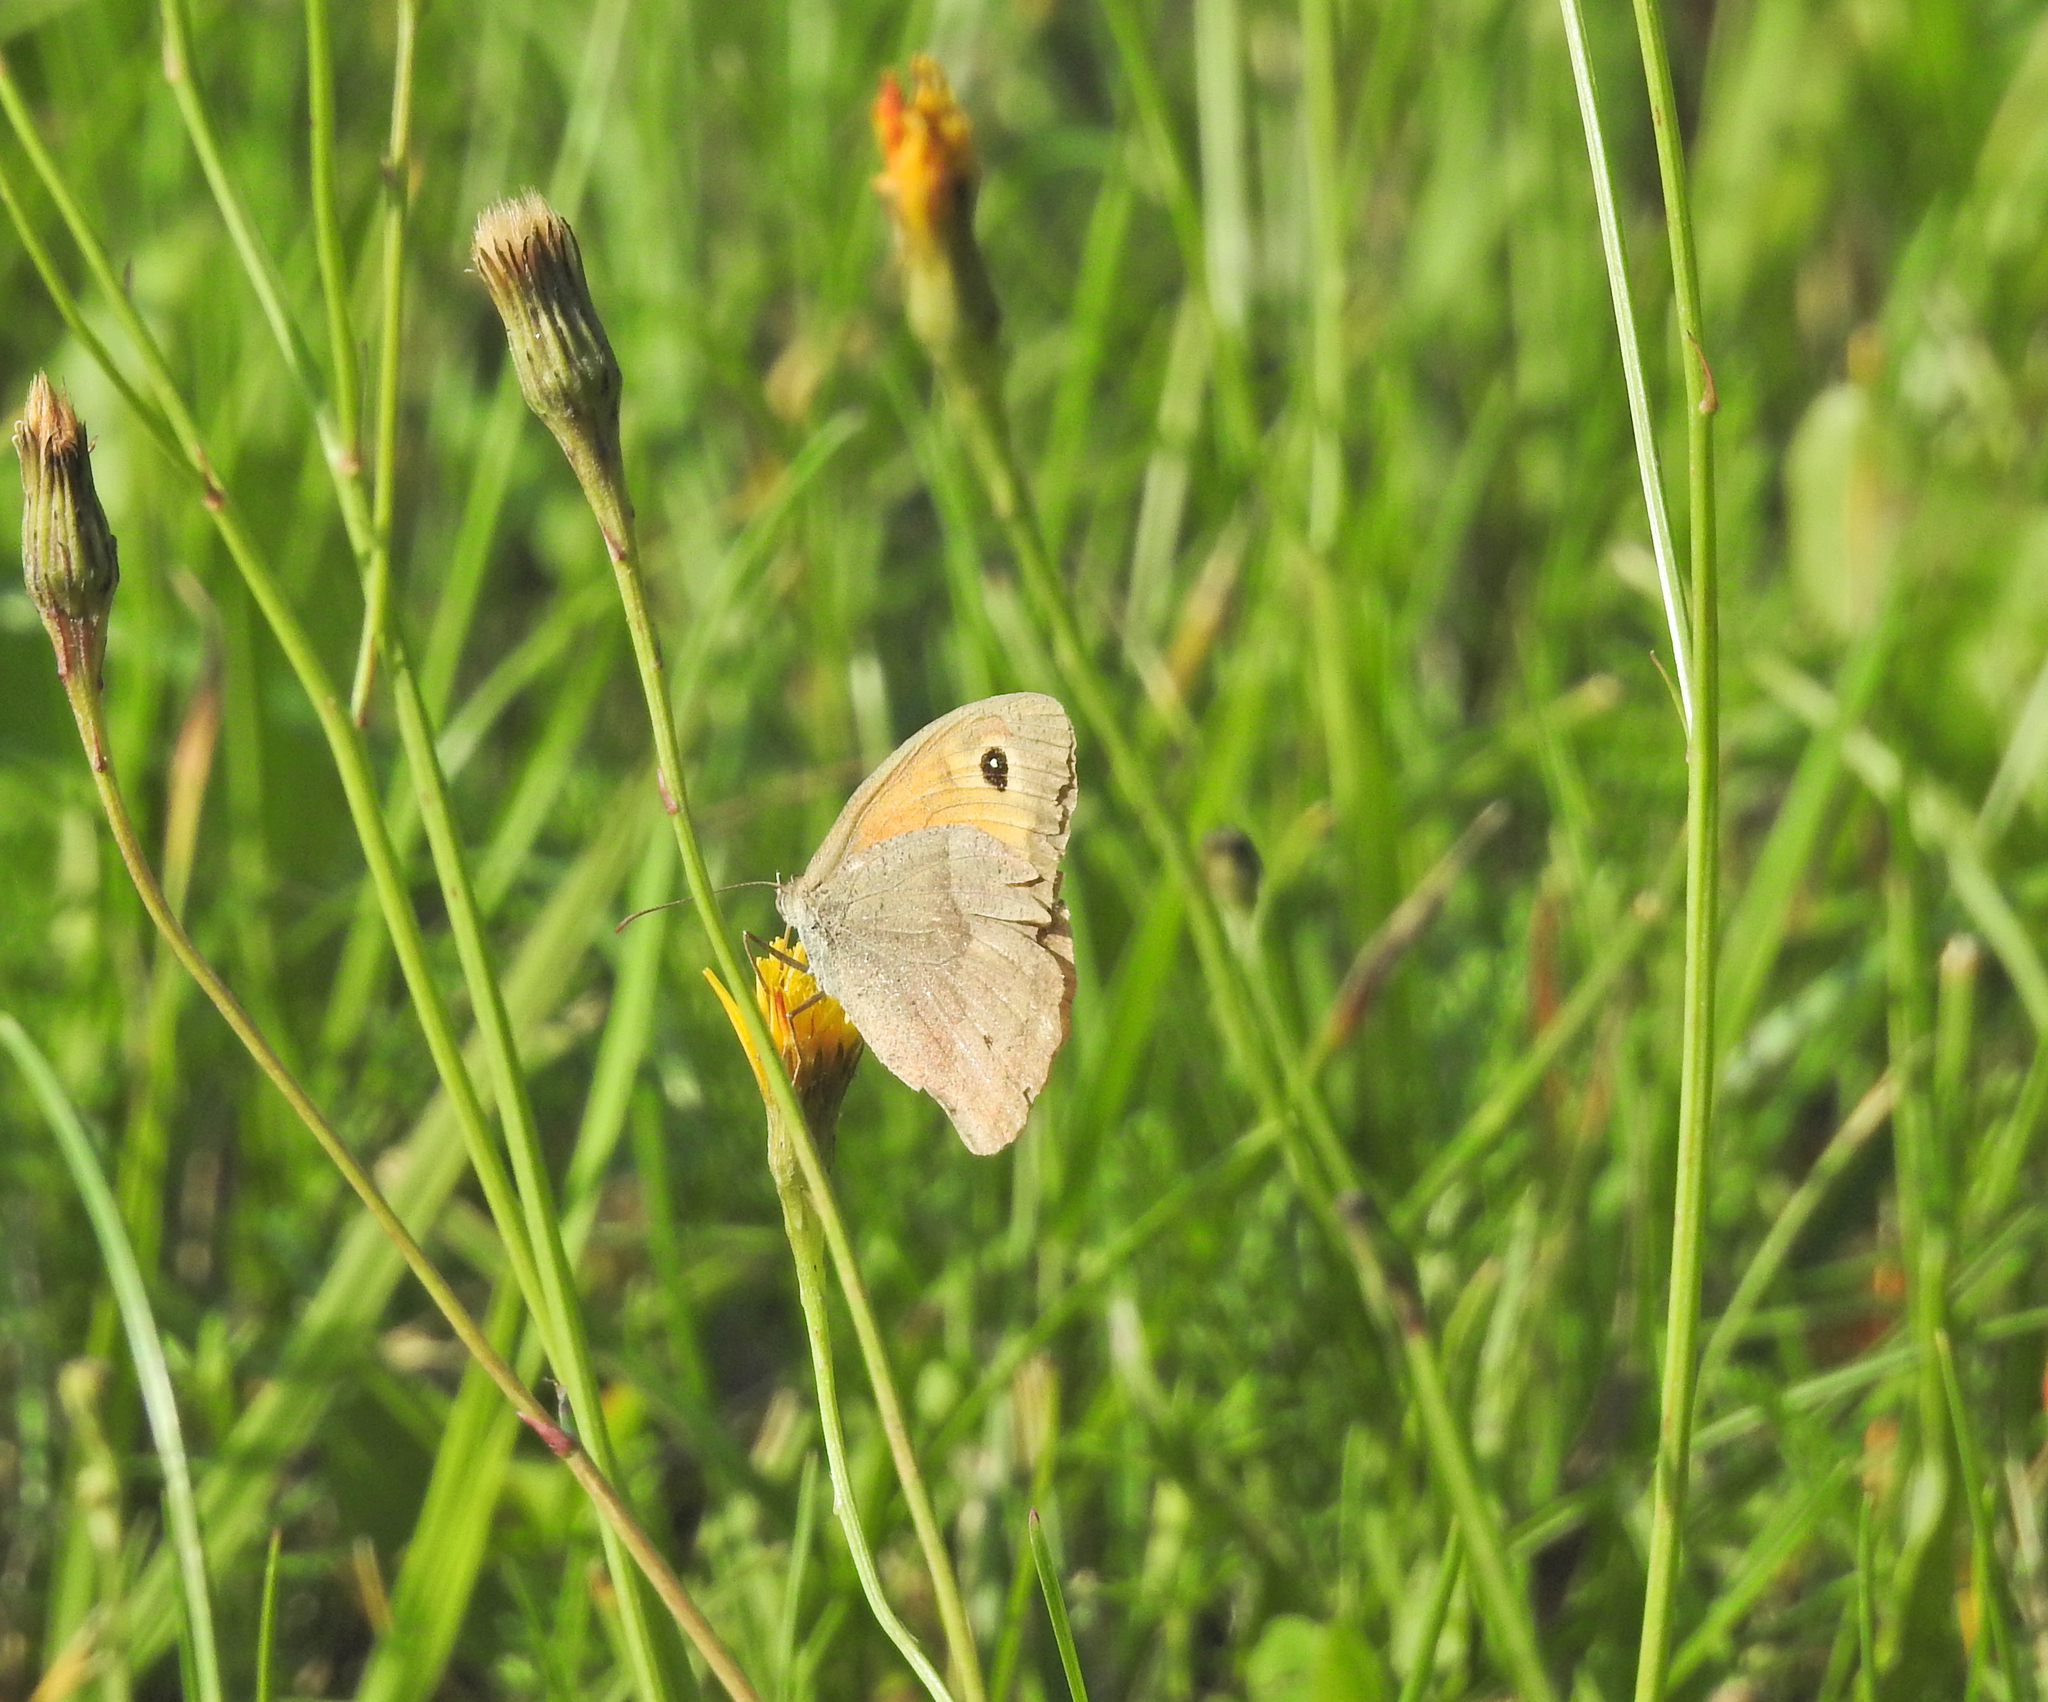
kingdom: Animalia
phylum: Arthropoda
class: Insecta
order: Lepidoptera
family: Nymphalidae
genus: Maniola
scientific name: Maniola jurtina
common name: Meadow brown
